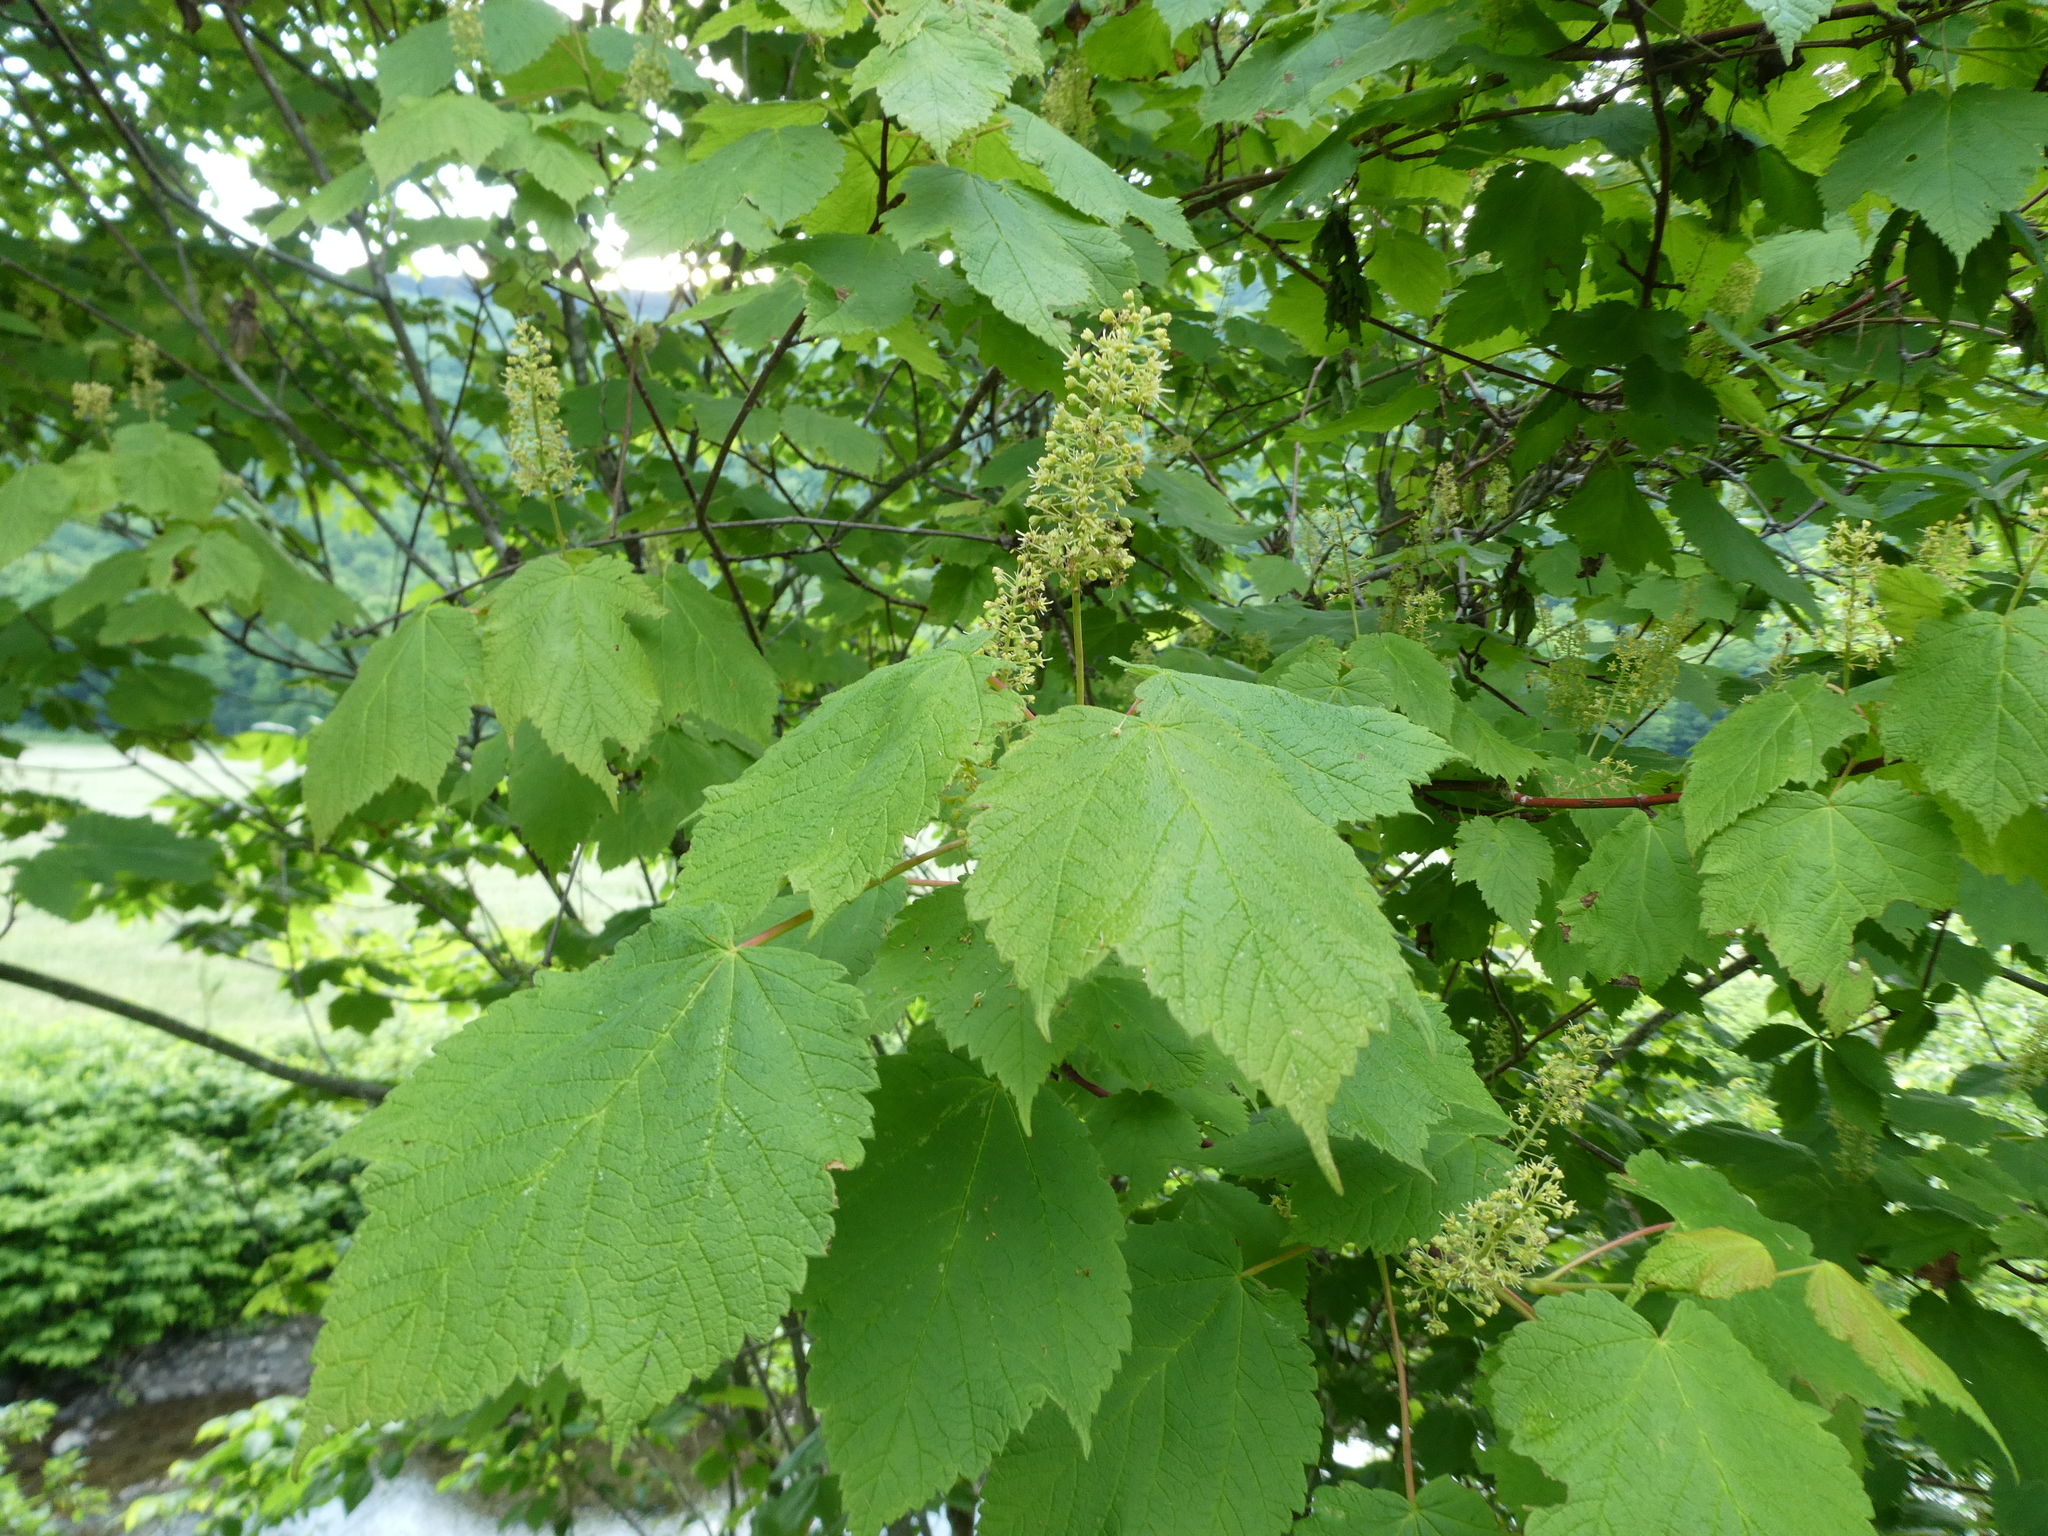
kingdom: Plantae
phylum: Tracheophyta
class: Magnoliopsida
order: Sapindales
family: Sapindaceae
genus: Acer
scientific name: Acer spicatum
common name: Mountain maple
